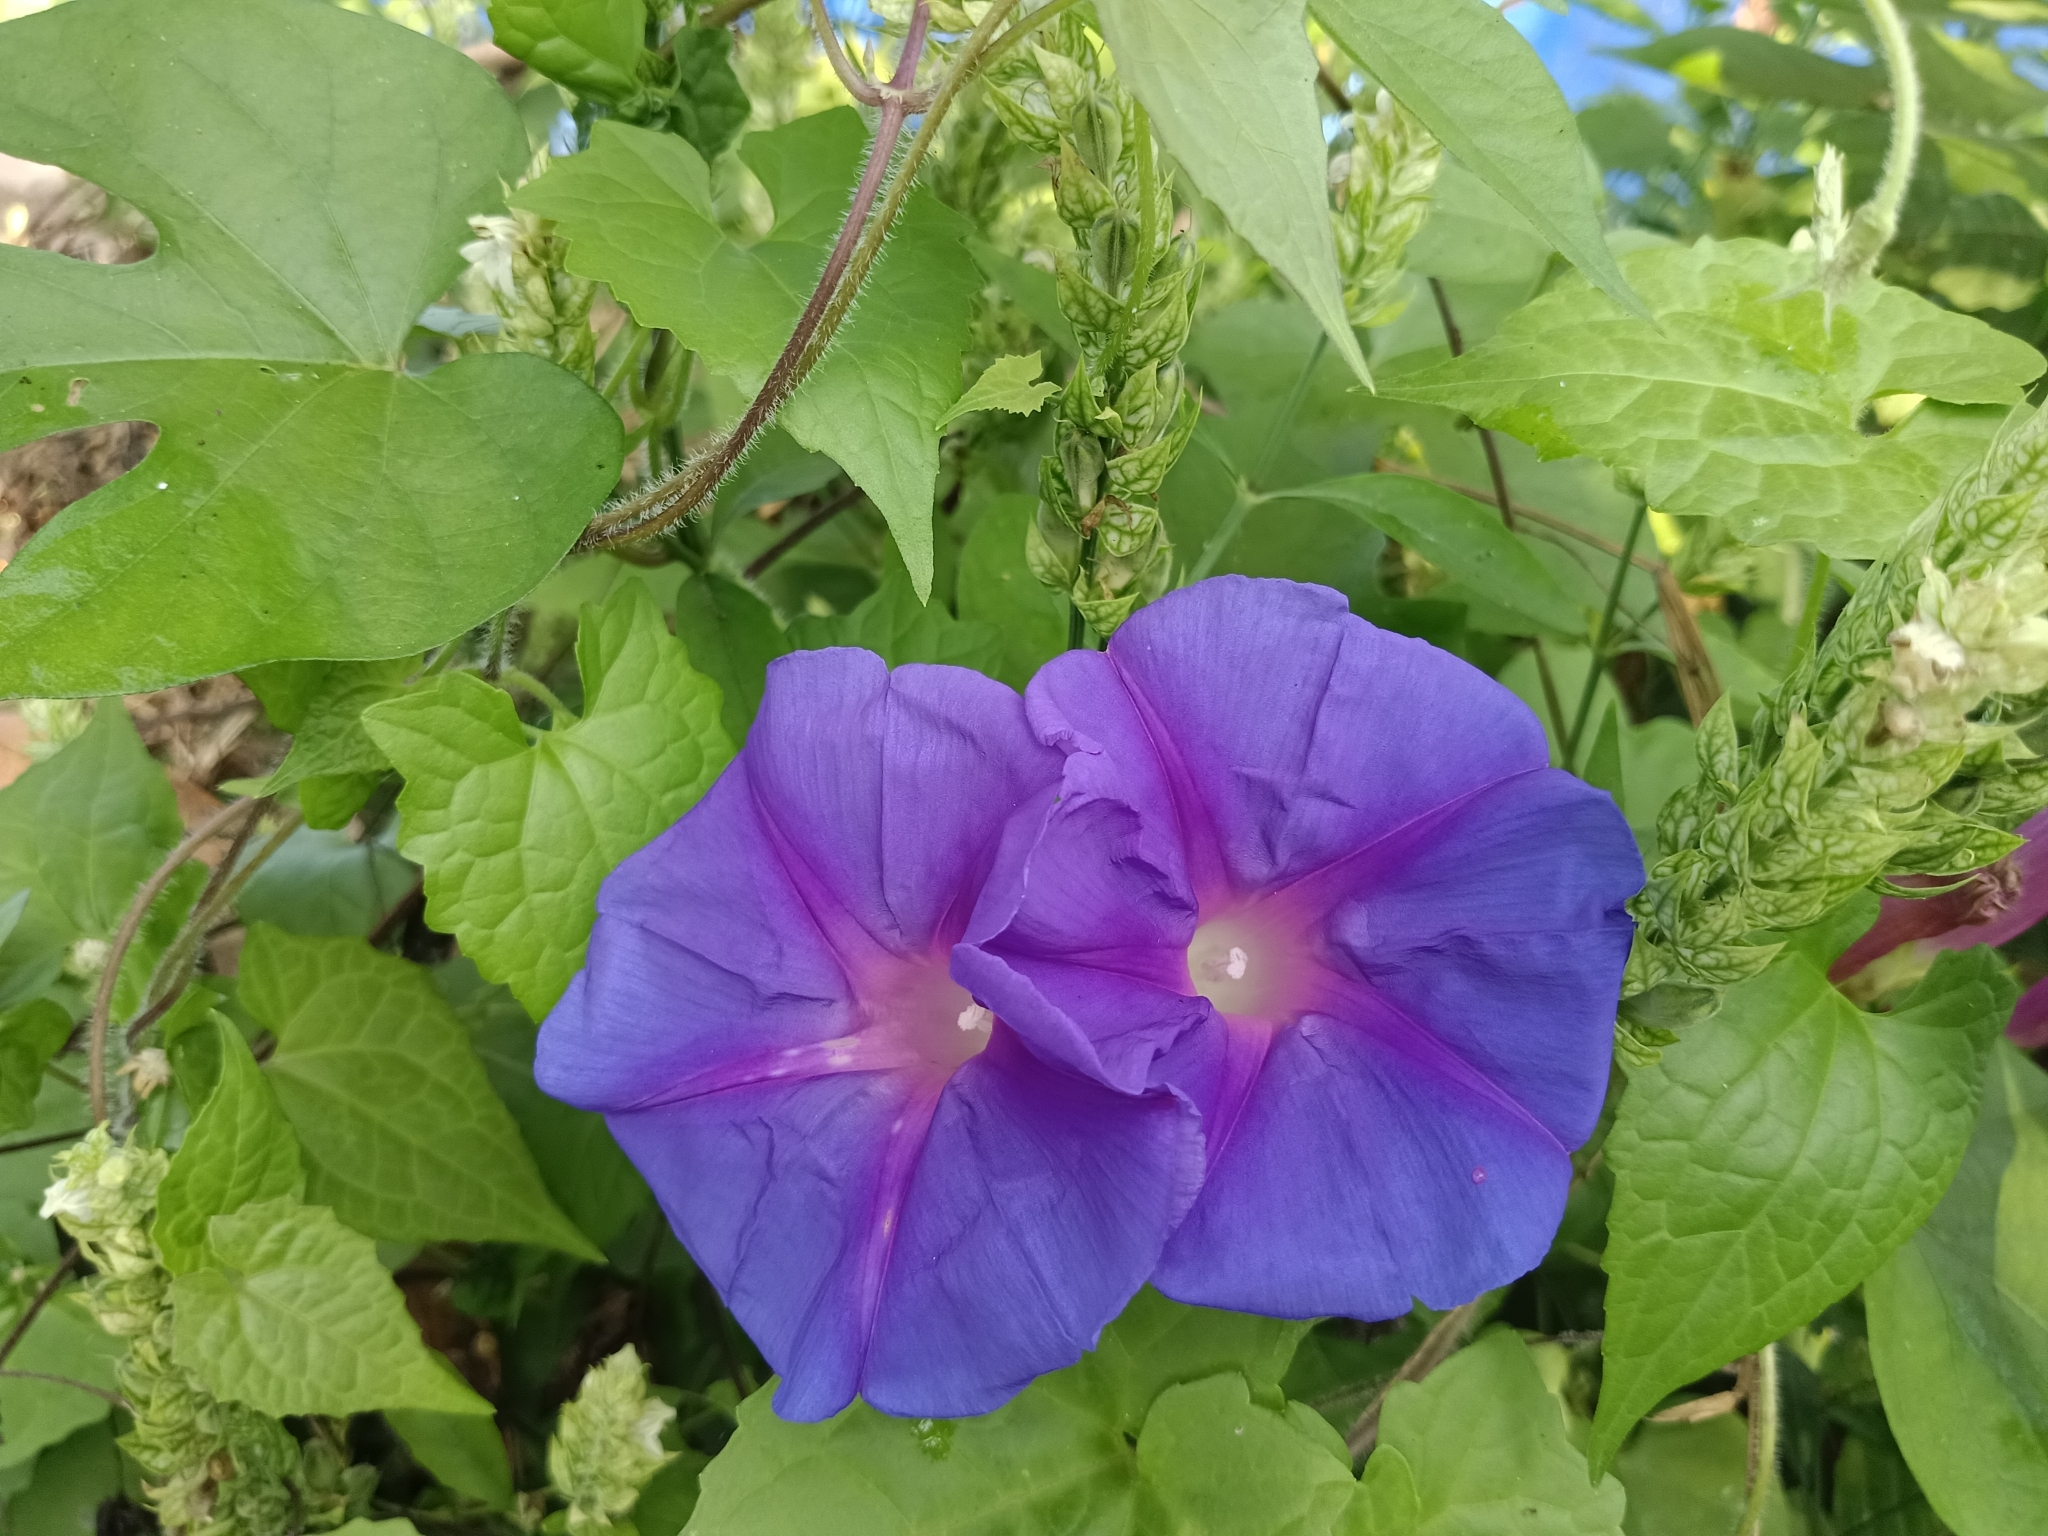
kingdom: Plantae
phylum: Tracheophyta
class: Magnoliopsida
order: Solanales
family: Convolvulaceae
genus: Ipomoea
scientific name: Ipomoea indica
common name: Blue dawnflower
